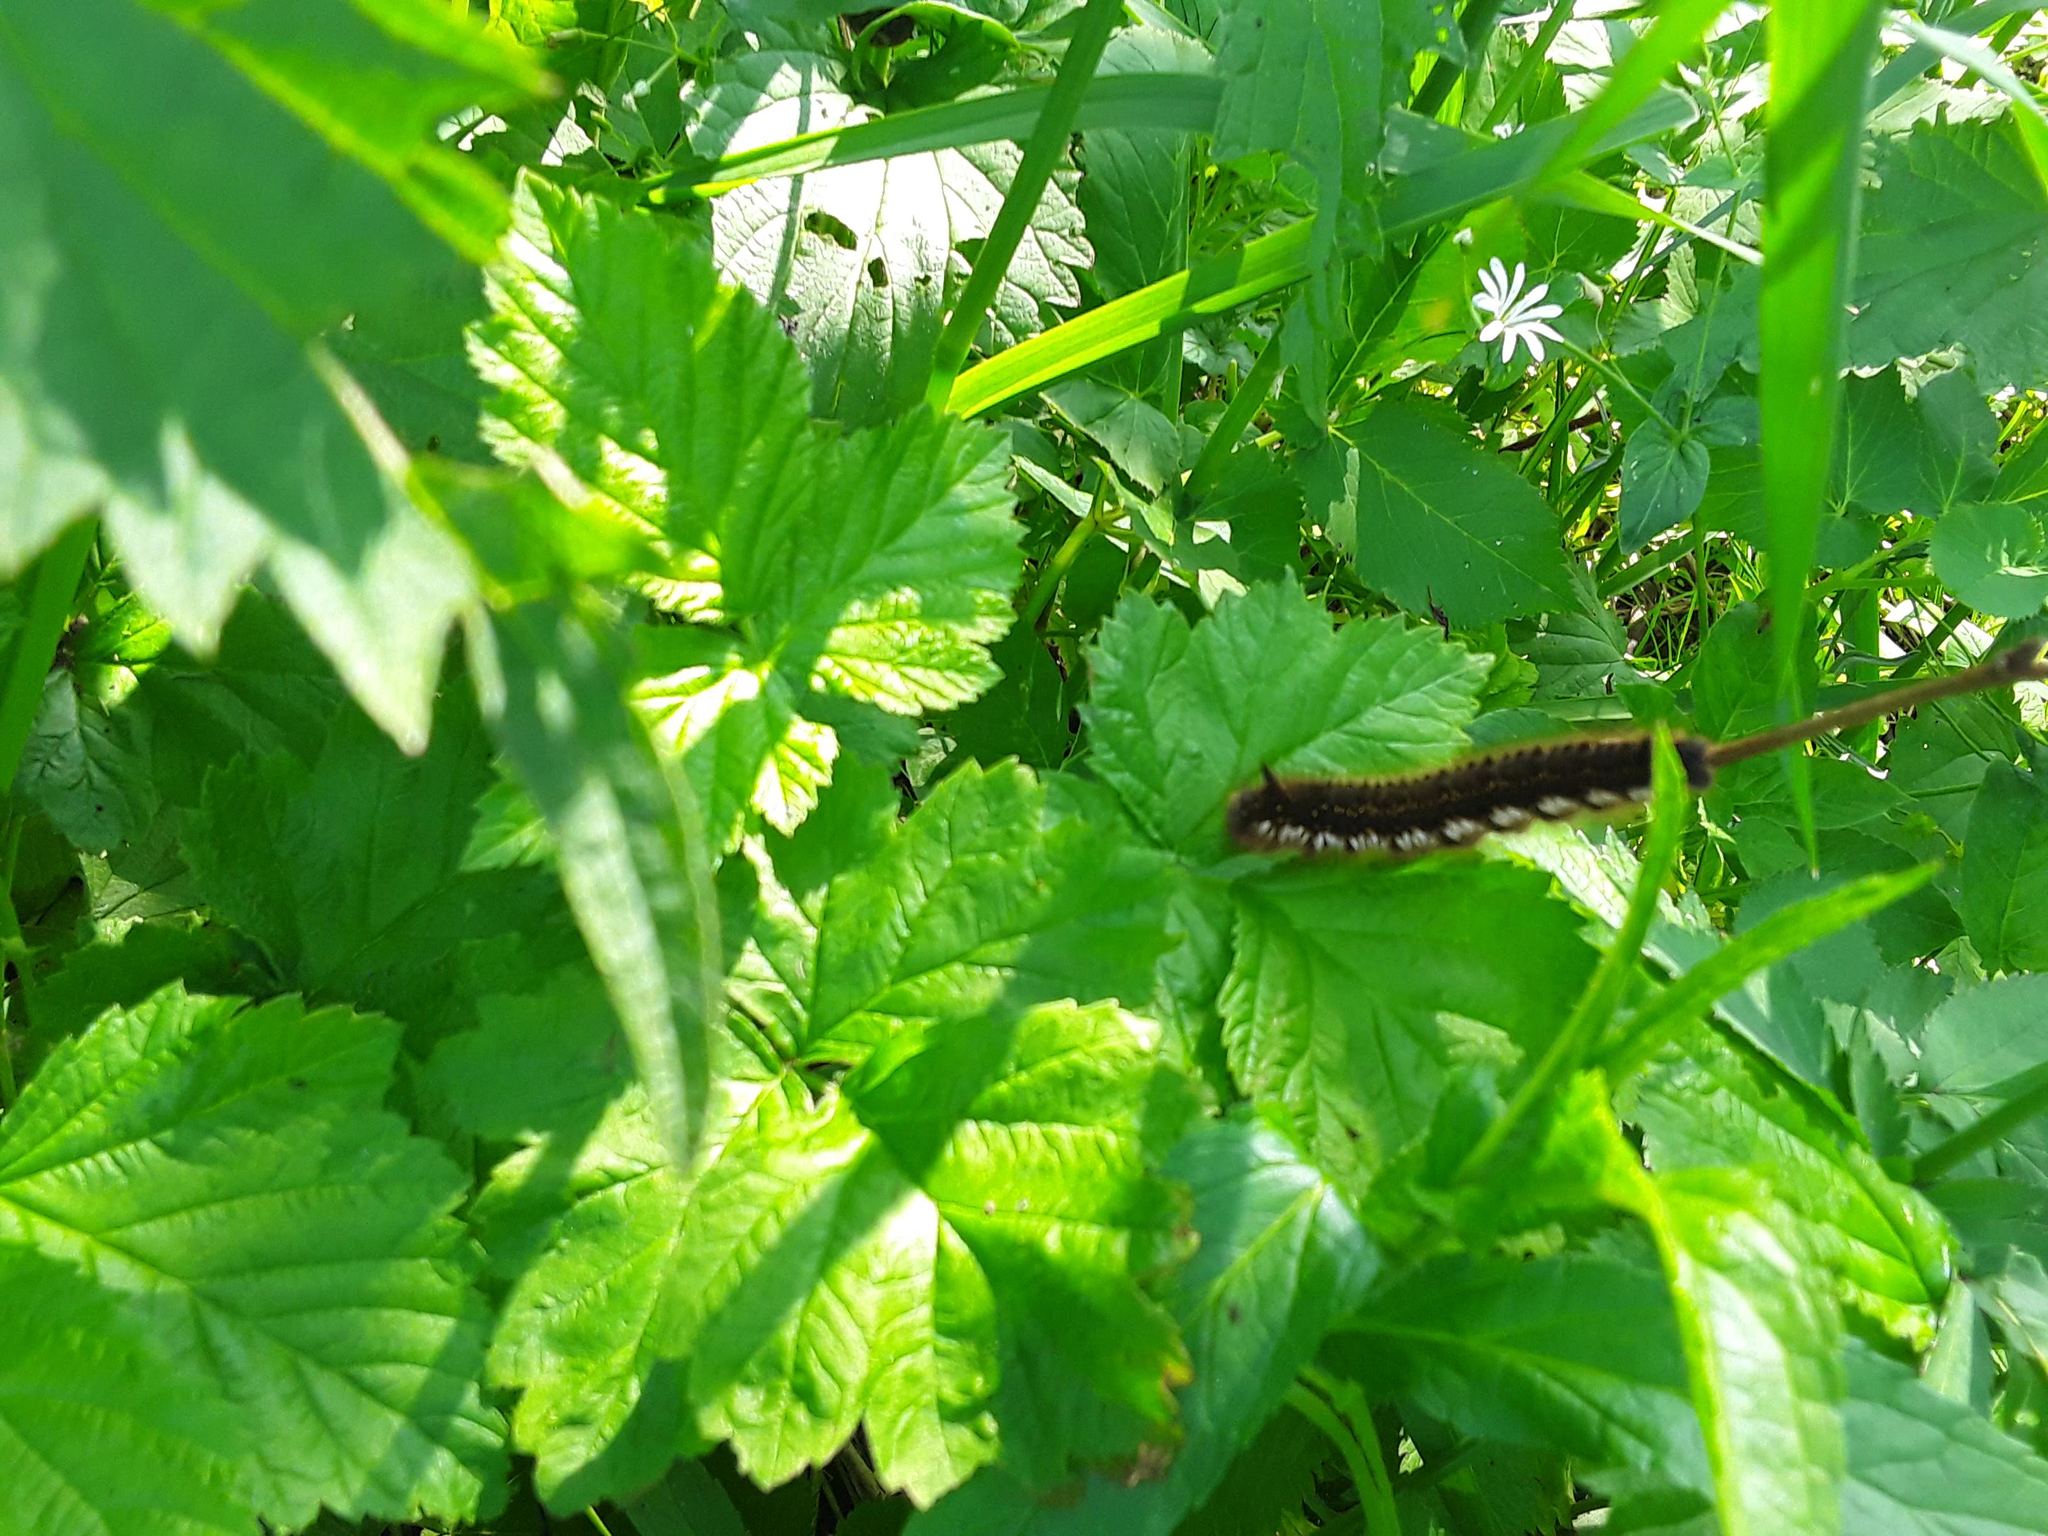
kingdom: Animalia
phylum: Arthropoda
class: Insecta
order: Lepidoptera
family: Lasiocampidae
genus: Euthrix
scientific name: Euthrix potatoria
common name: Drinker
